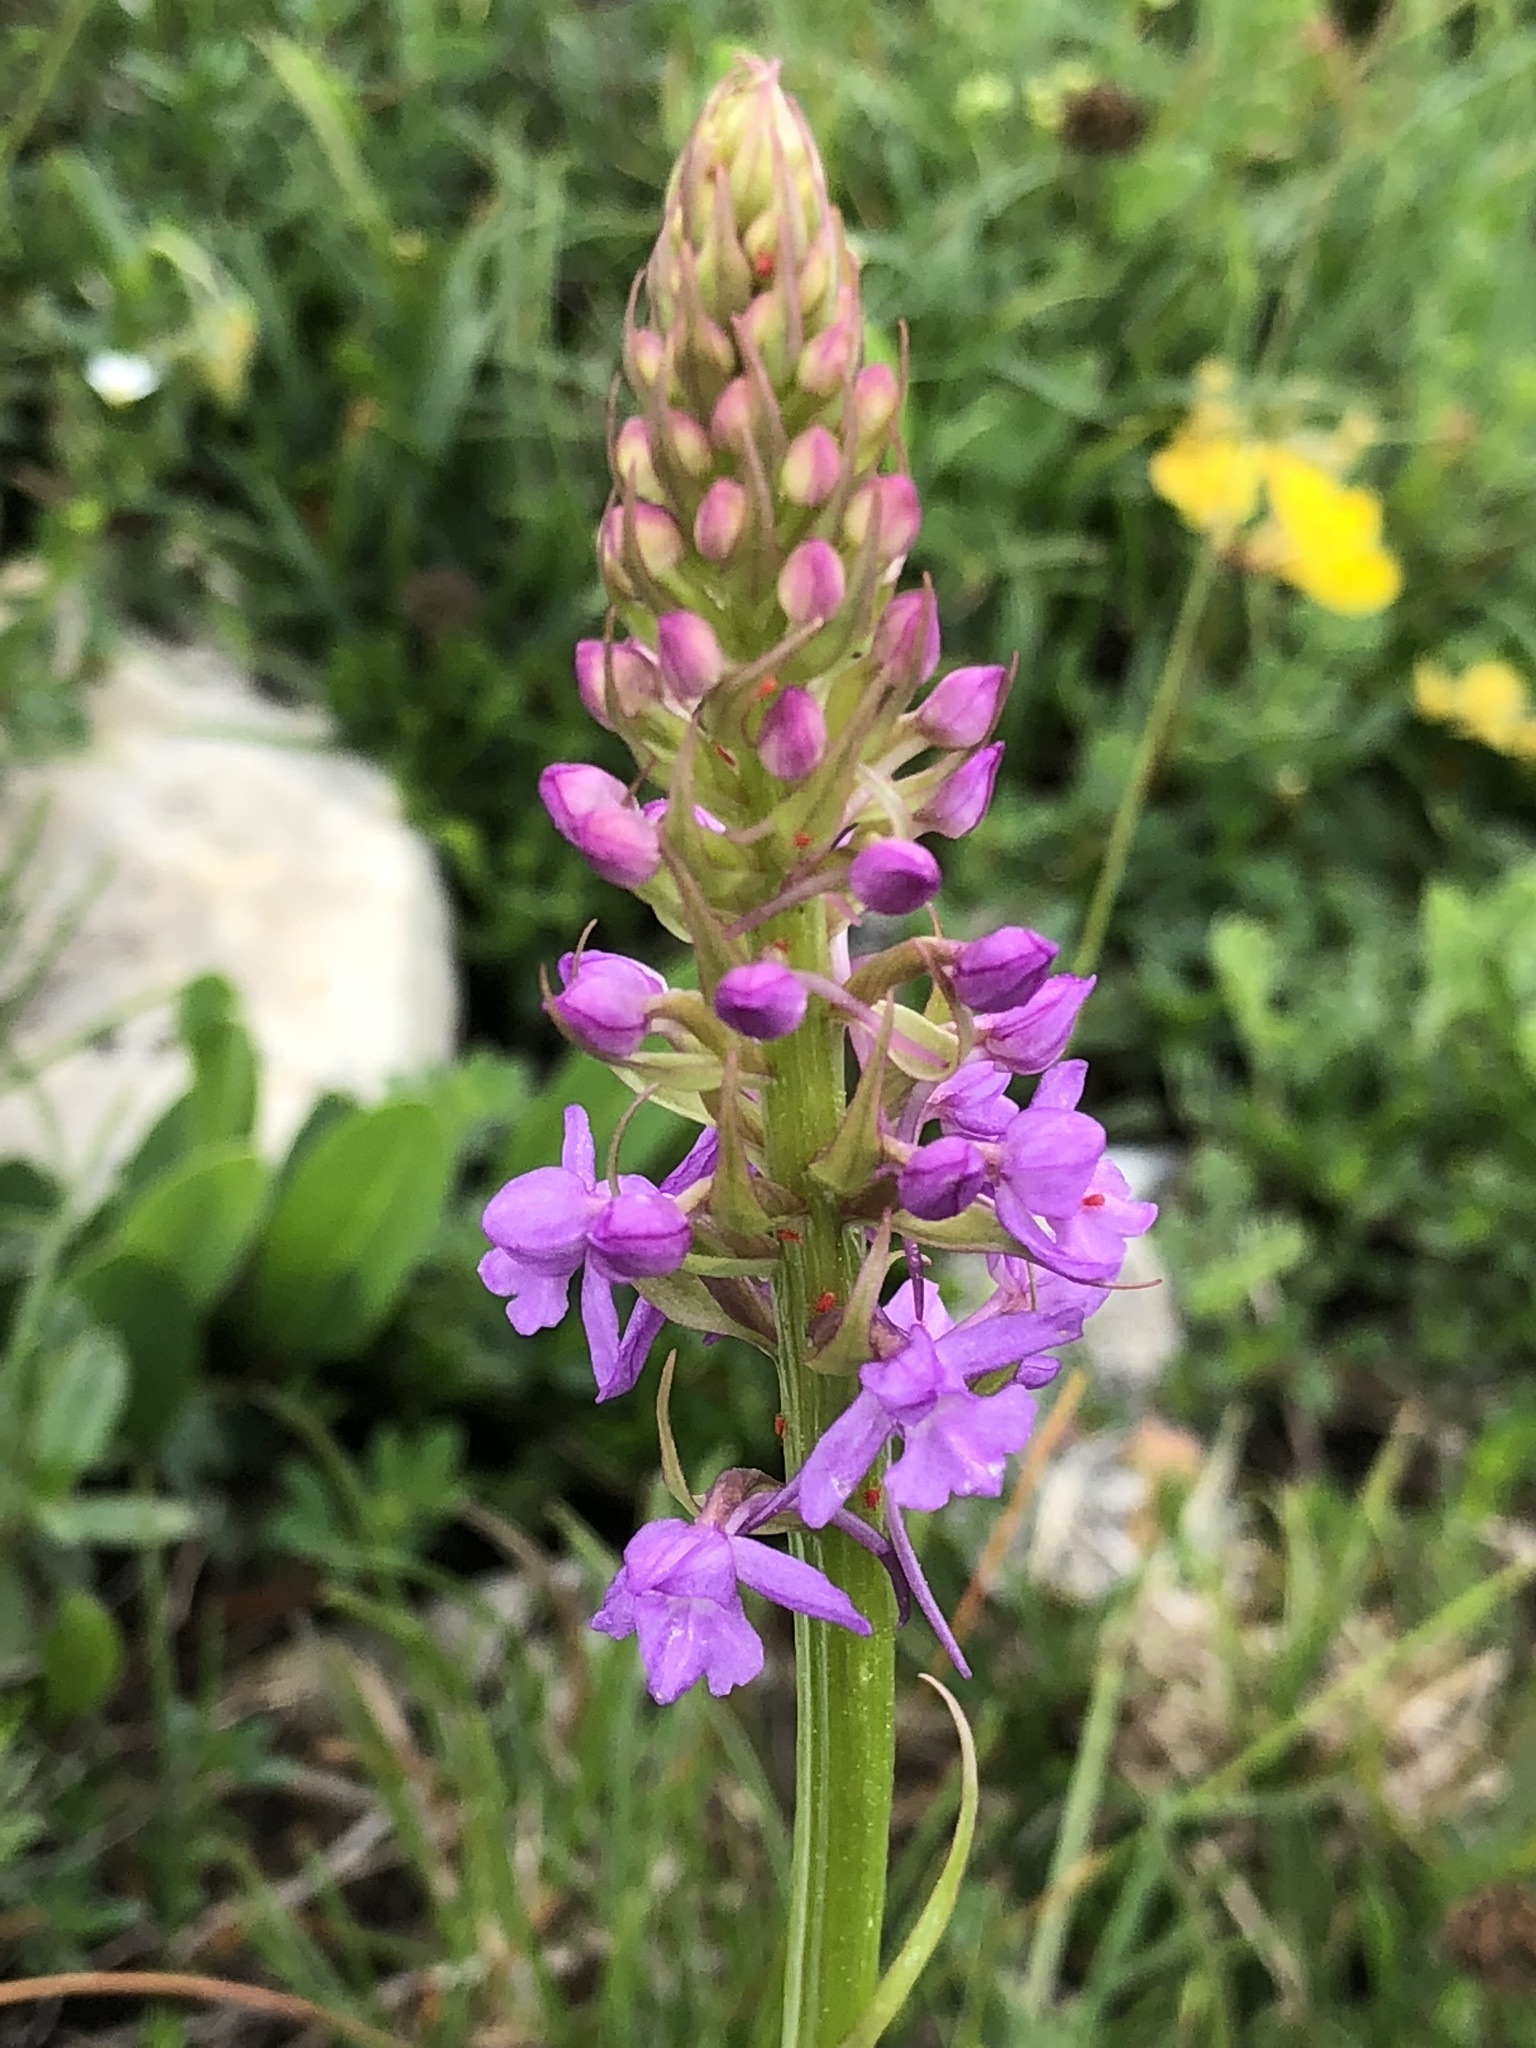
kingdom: Plantae
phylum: Tracheophyta
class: Liliopsida
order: Asparagales
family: Orchidaceae
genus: Gymnadenia
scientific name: Gymnadenia conopsea
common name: Fragrant orchid
